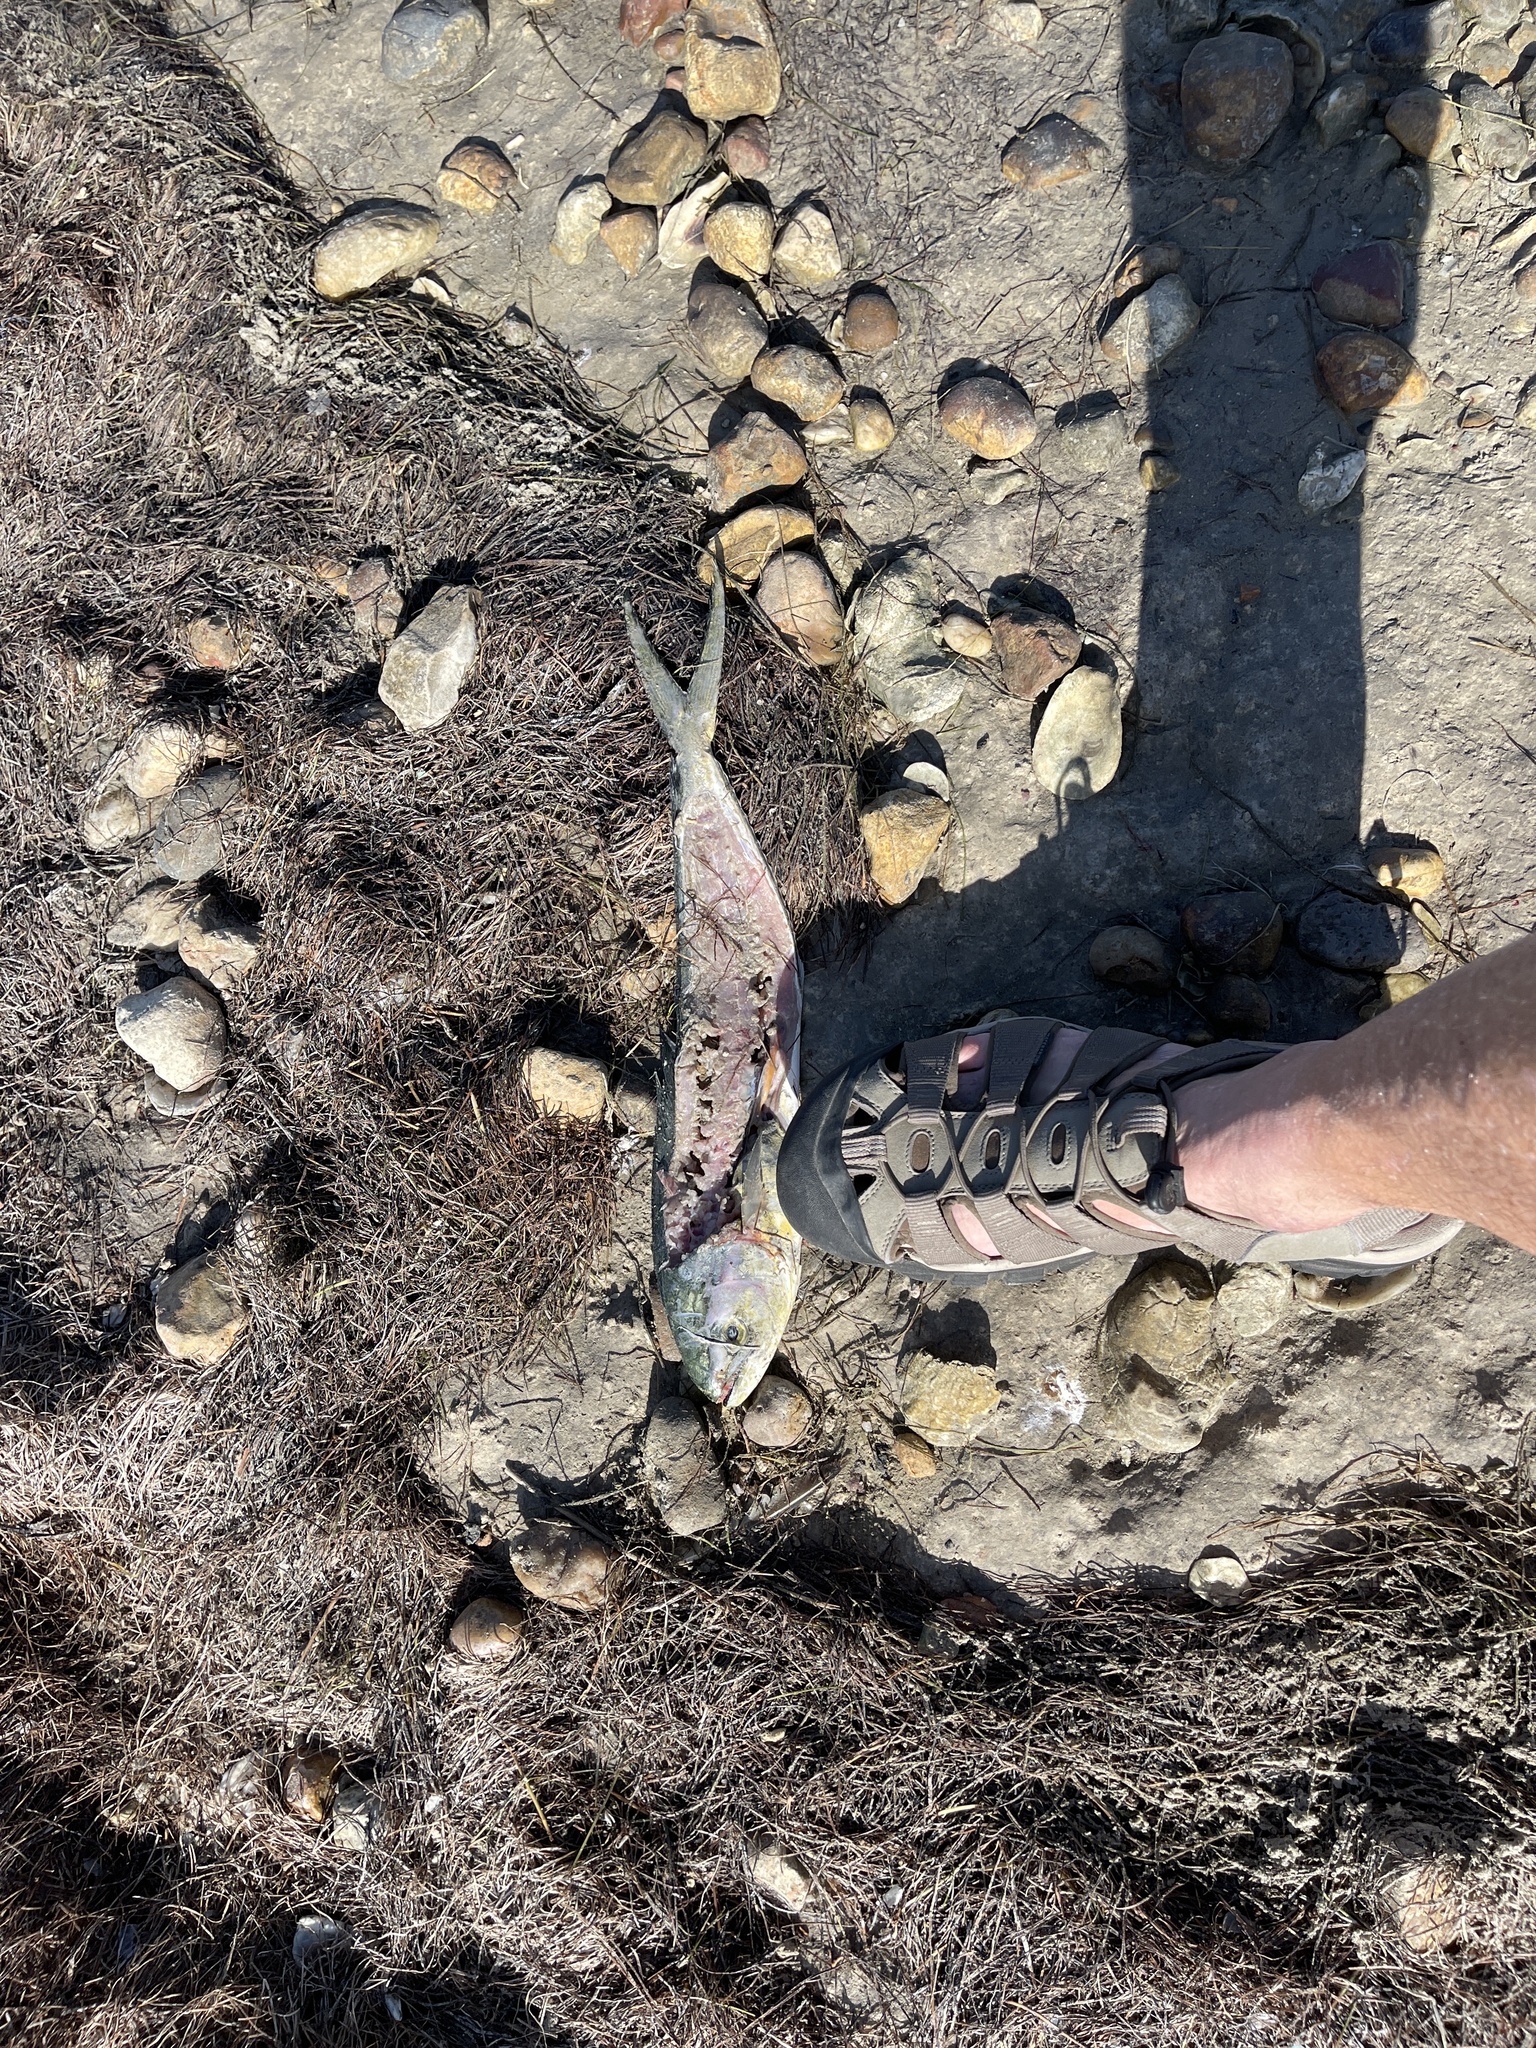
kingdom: Animalia
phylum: Chordata
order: Perciformes
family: Coryphaenidae
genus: Coryphaena
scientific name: Coryphaena hippurus
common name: Dolphin
